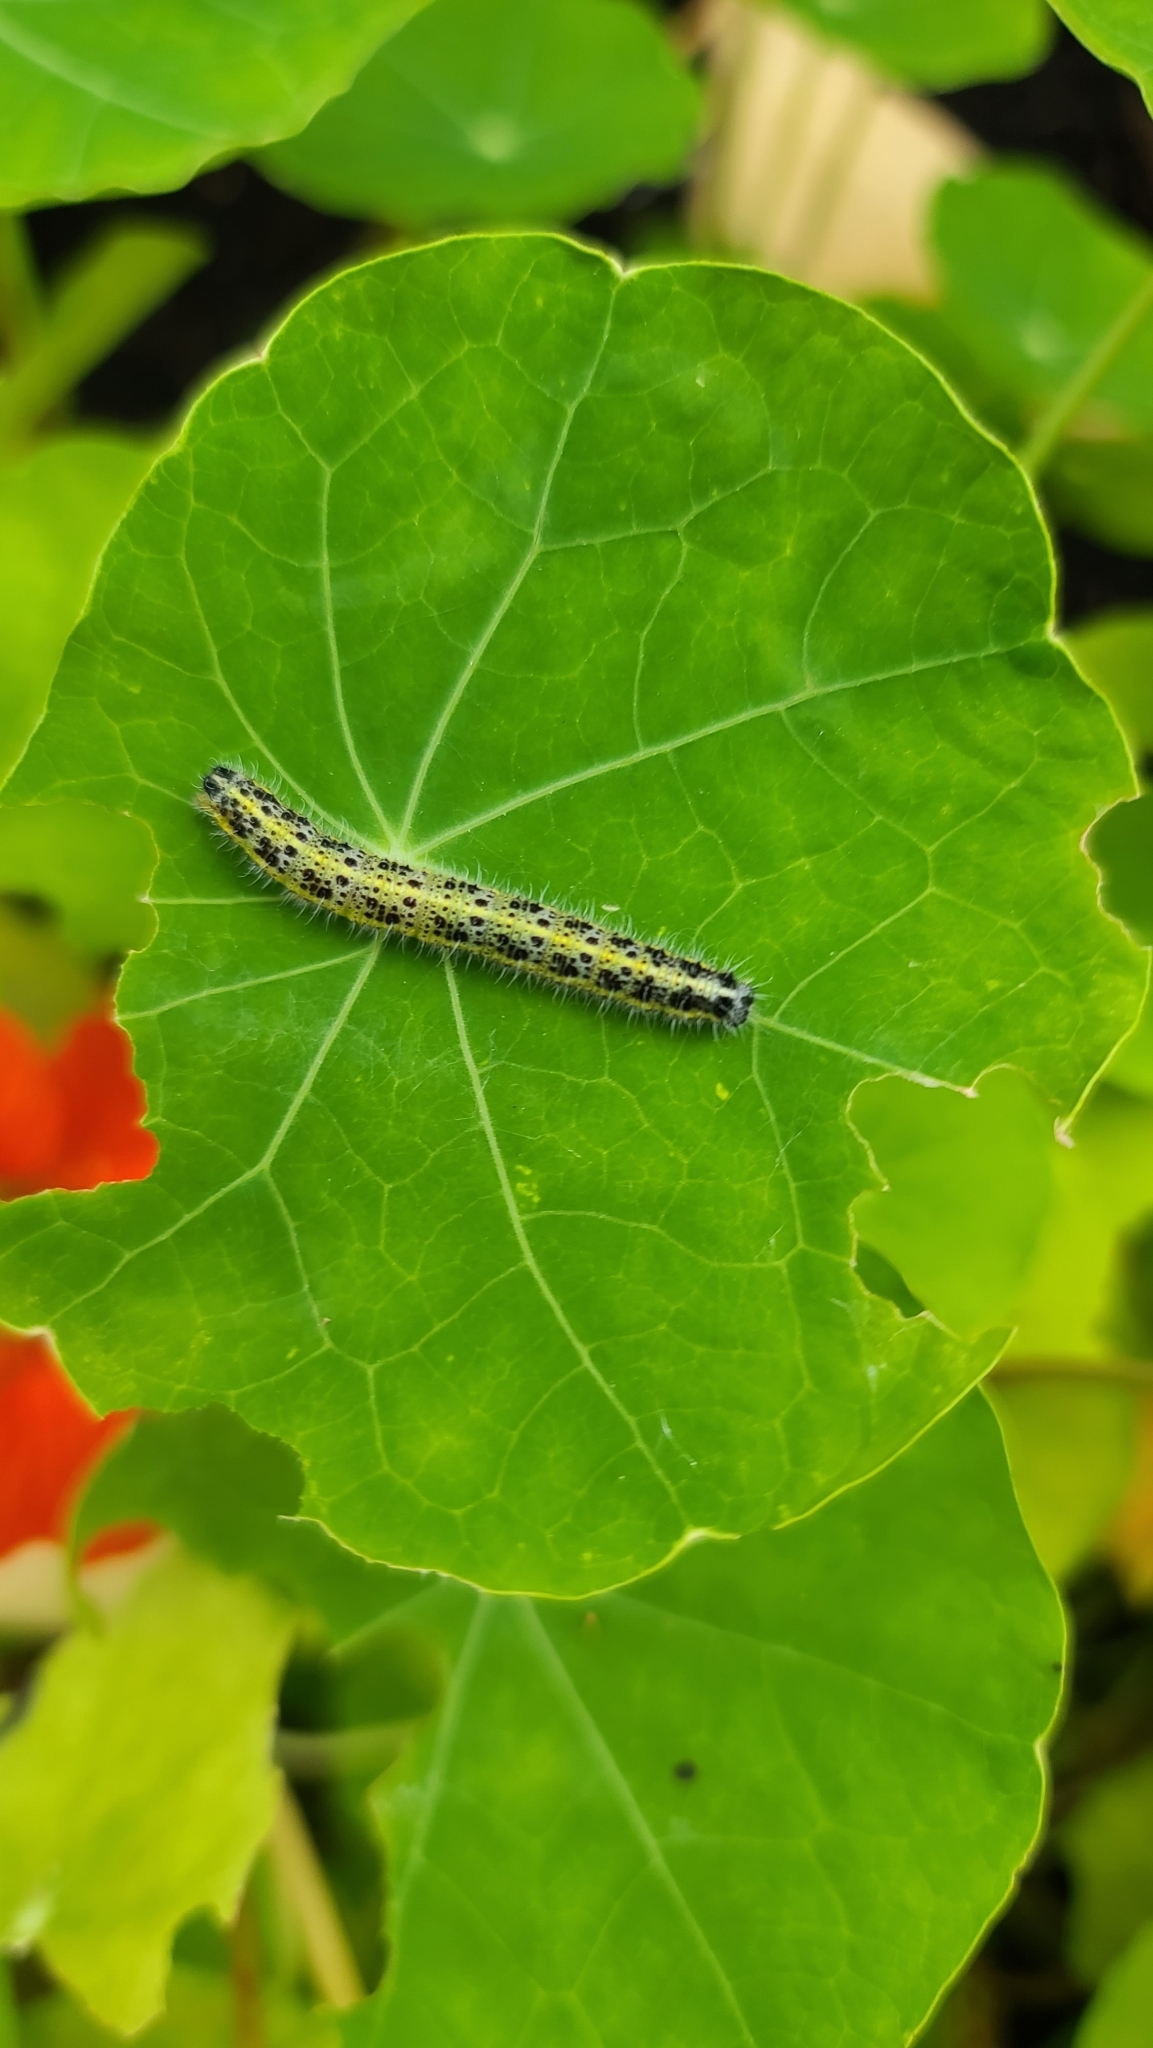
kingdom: Animalia
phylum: Arthropoda
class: Insecta
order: Lepidoptera
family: Pieridae
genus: Pieris
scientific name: Pieris brassicae
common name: Large white
